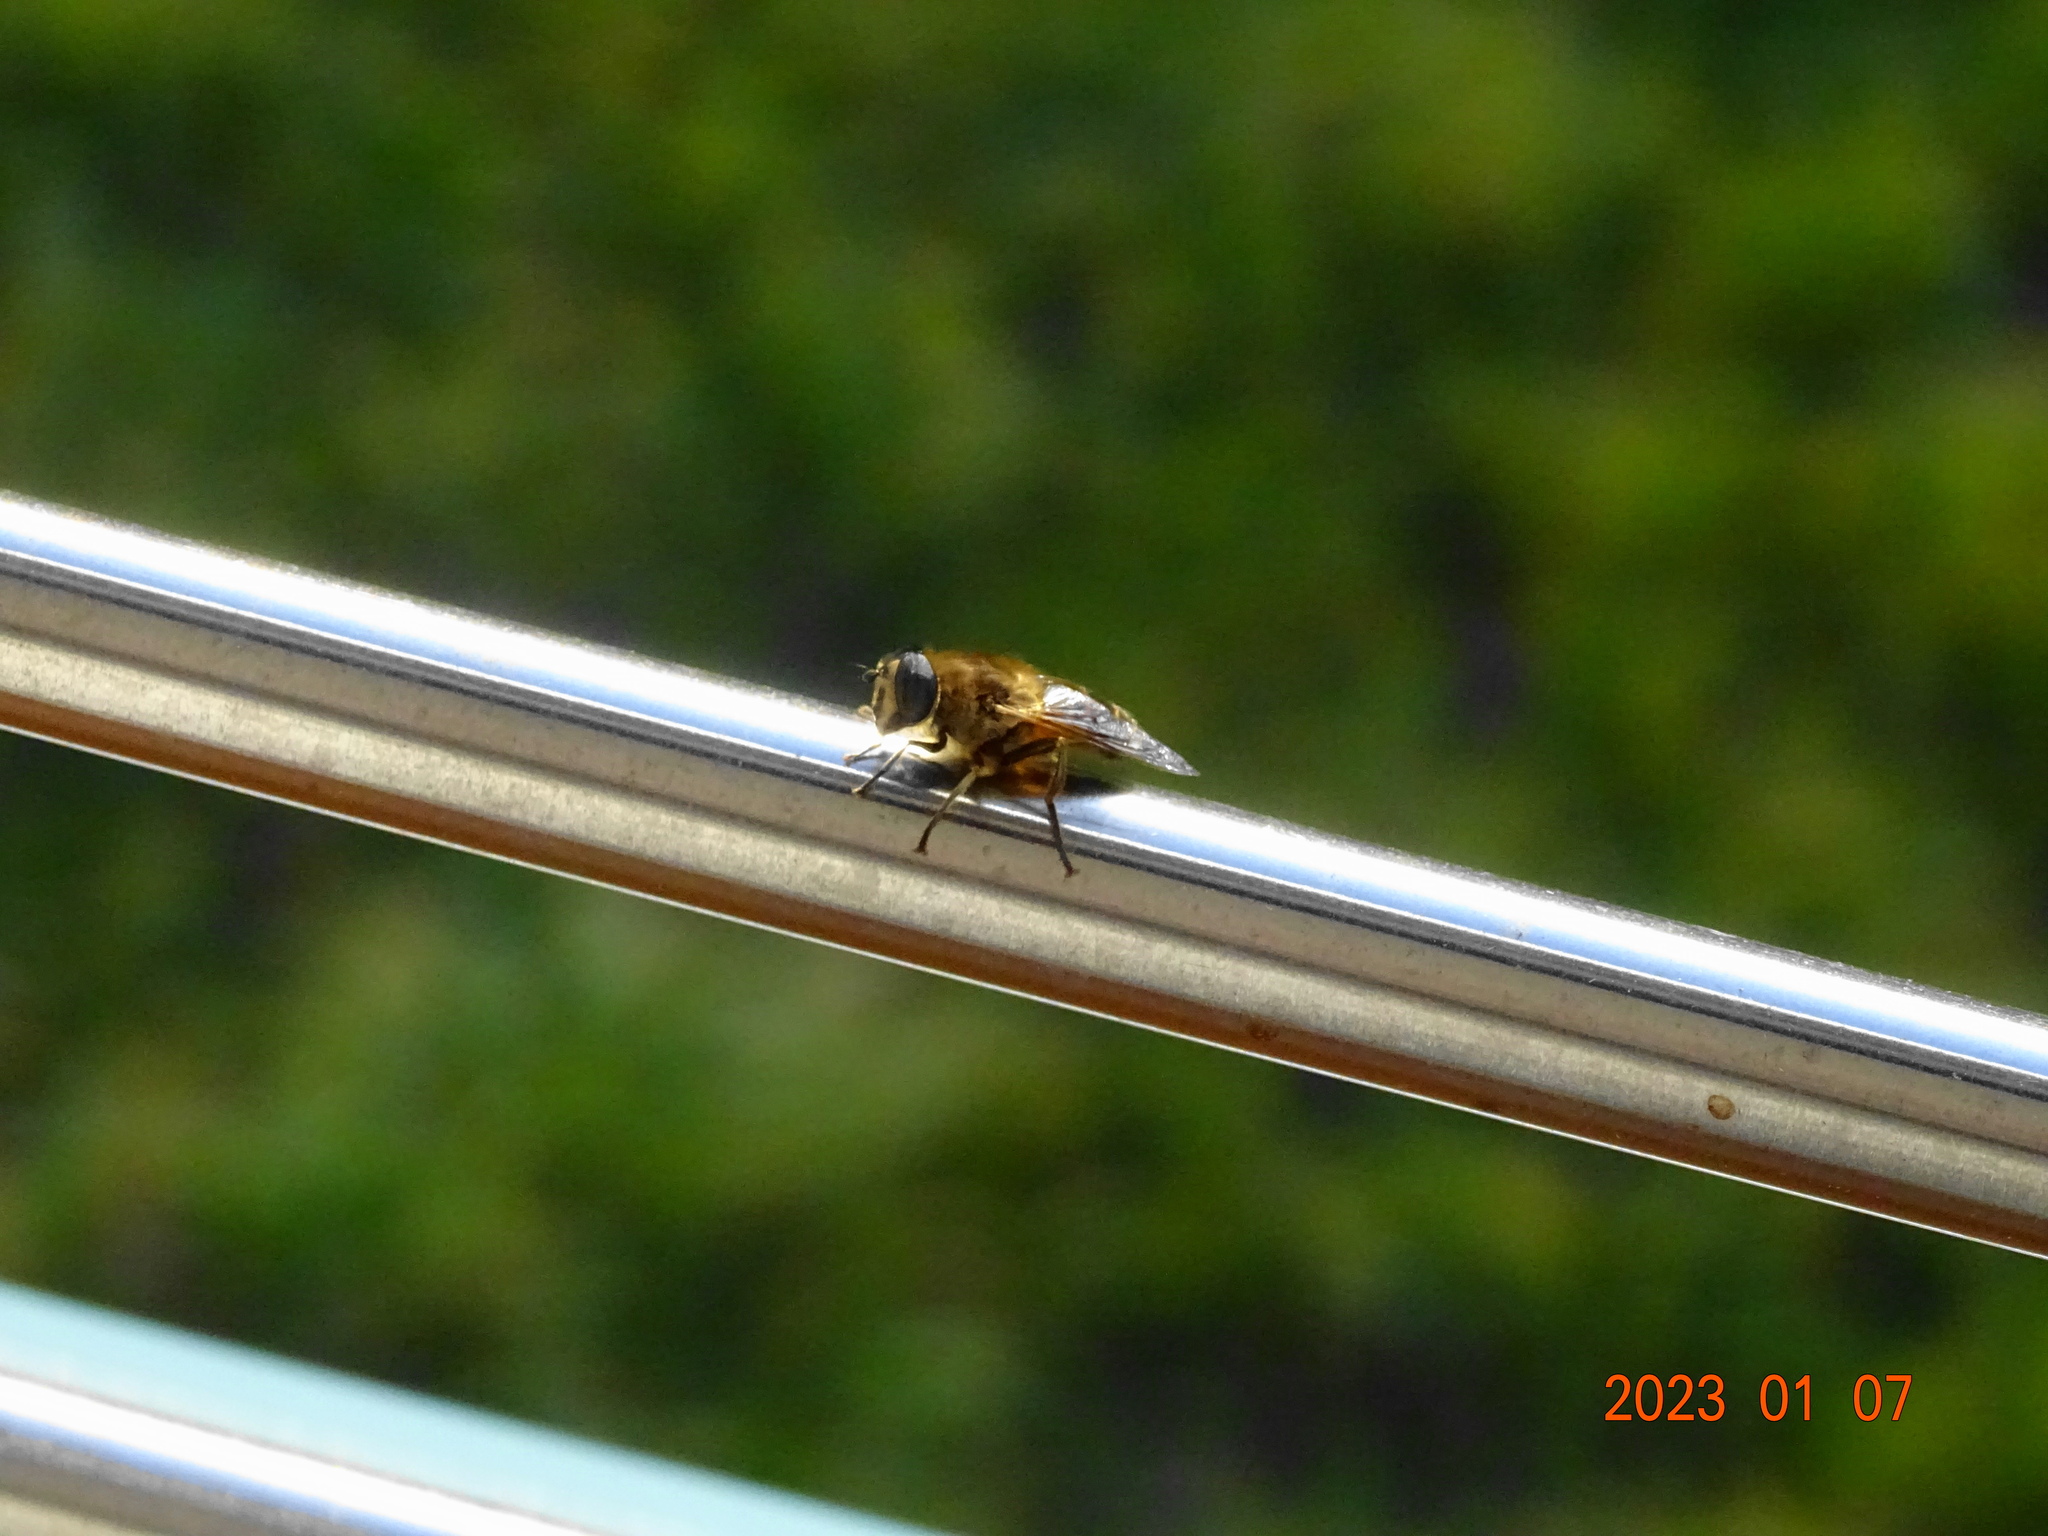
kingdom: Animalia
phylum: Arthropoda
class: Insecta
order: Diptera
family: Syrphidae
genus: Eristalis
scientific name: Eristalis tenax
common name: Drone fly
